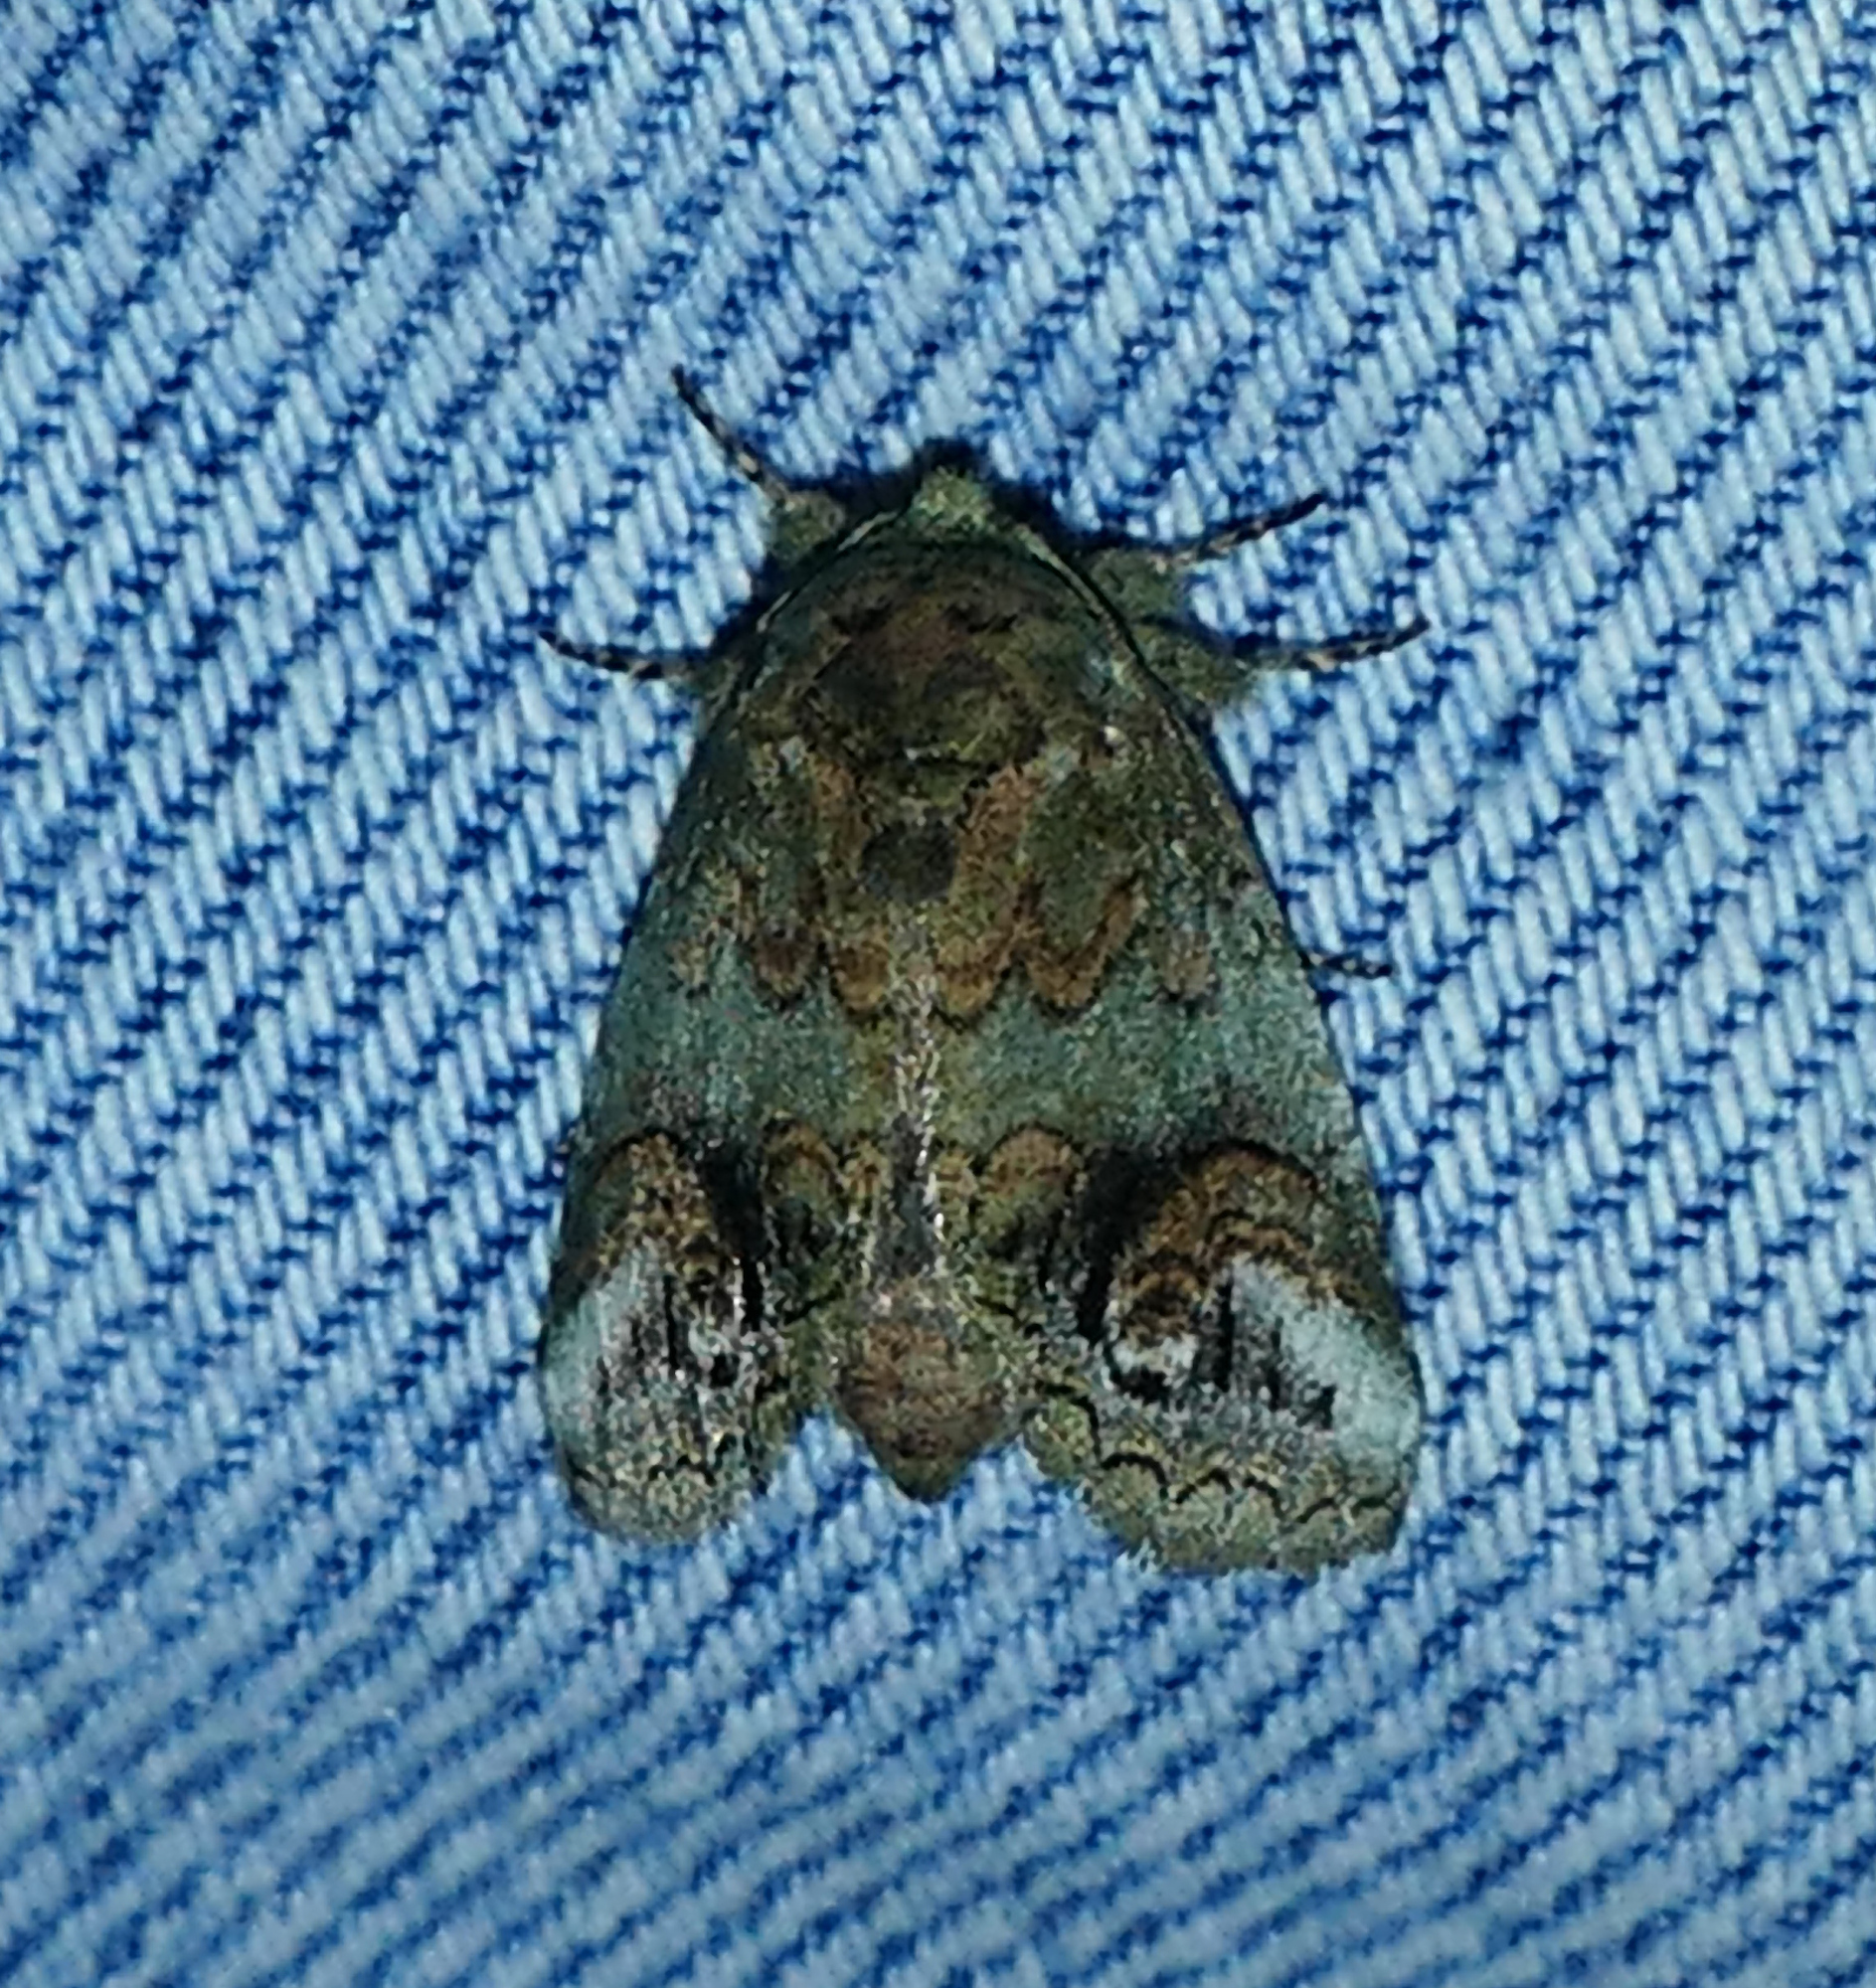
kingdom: Animalia
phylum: Arthropoda
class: Insecta
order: Lepidoptera
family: Notodontidae
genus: Rifargia
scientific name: Rifargia
